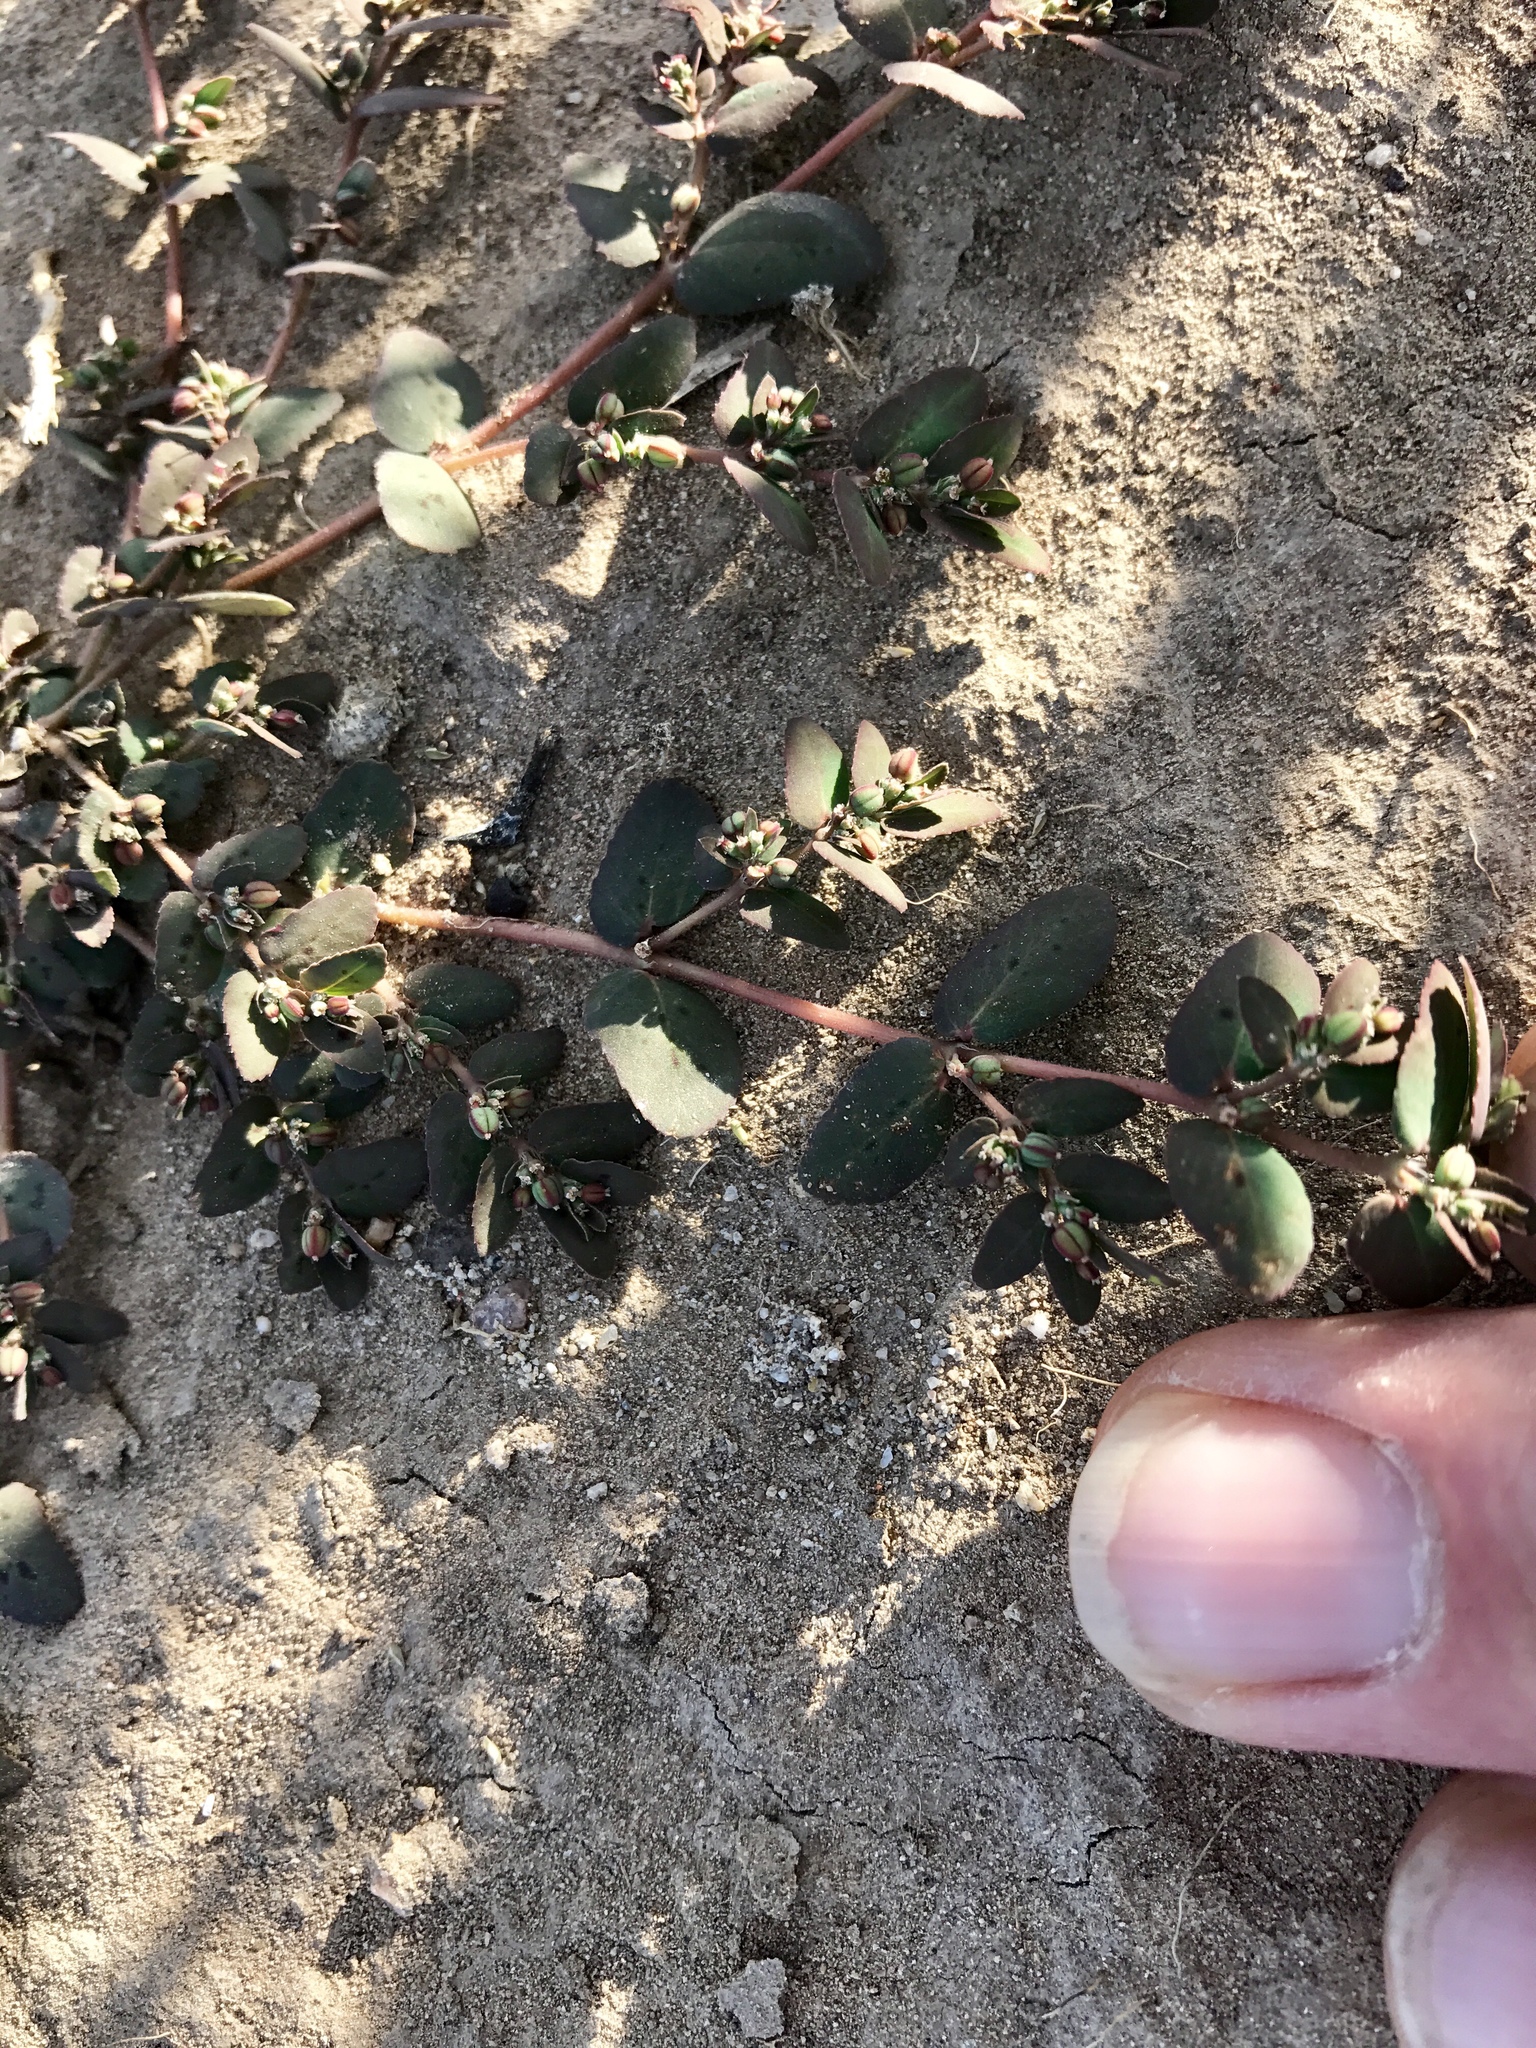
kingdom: Plantae
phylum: Tracheophyta
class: Magnoliopsida
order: Malpighiales
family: Euphorbiaceae
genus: Euphorbia
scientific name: Euphorbia abramsiana
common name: Abram's spurge
